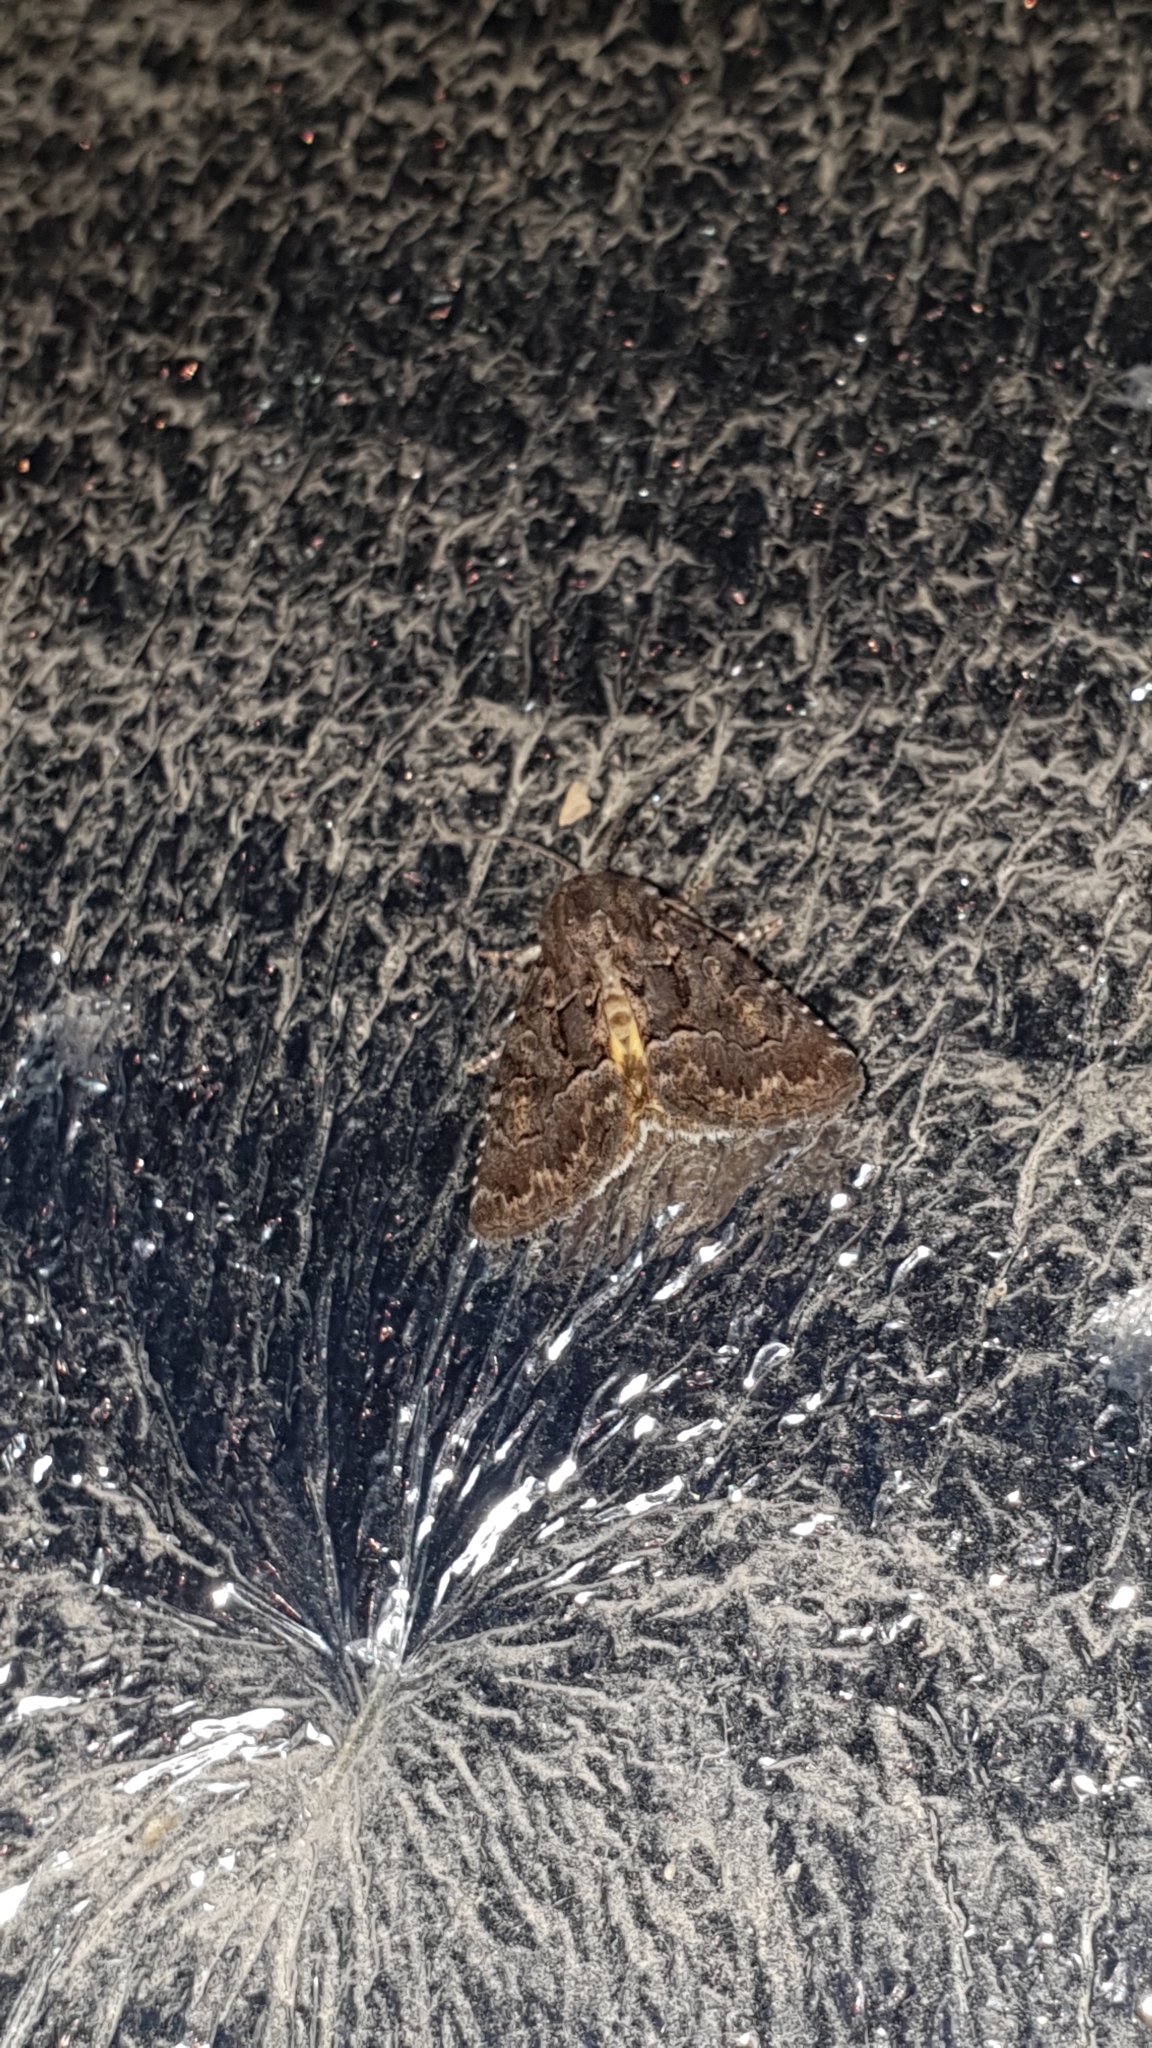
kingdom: Animalia
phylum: Arthropoda
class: Insecta
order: Lepidoptera
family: Noctuidae
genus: Thalpophila
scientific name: Thalpophila matura
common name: Straw underwing
